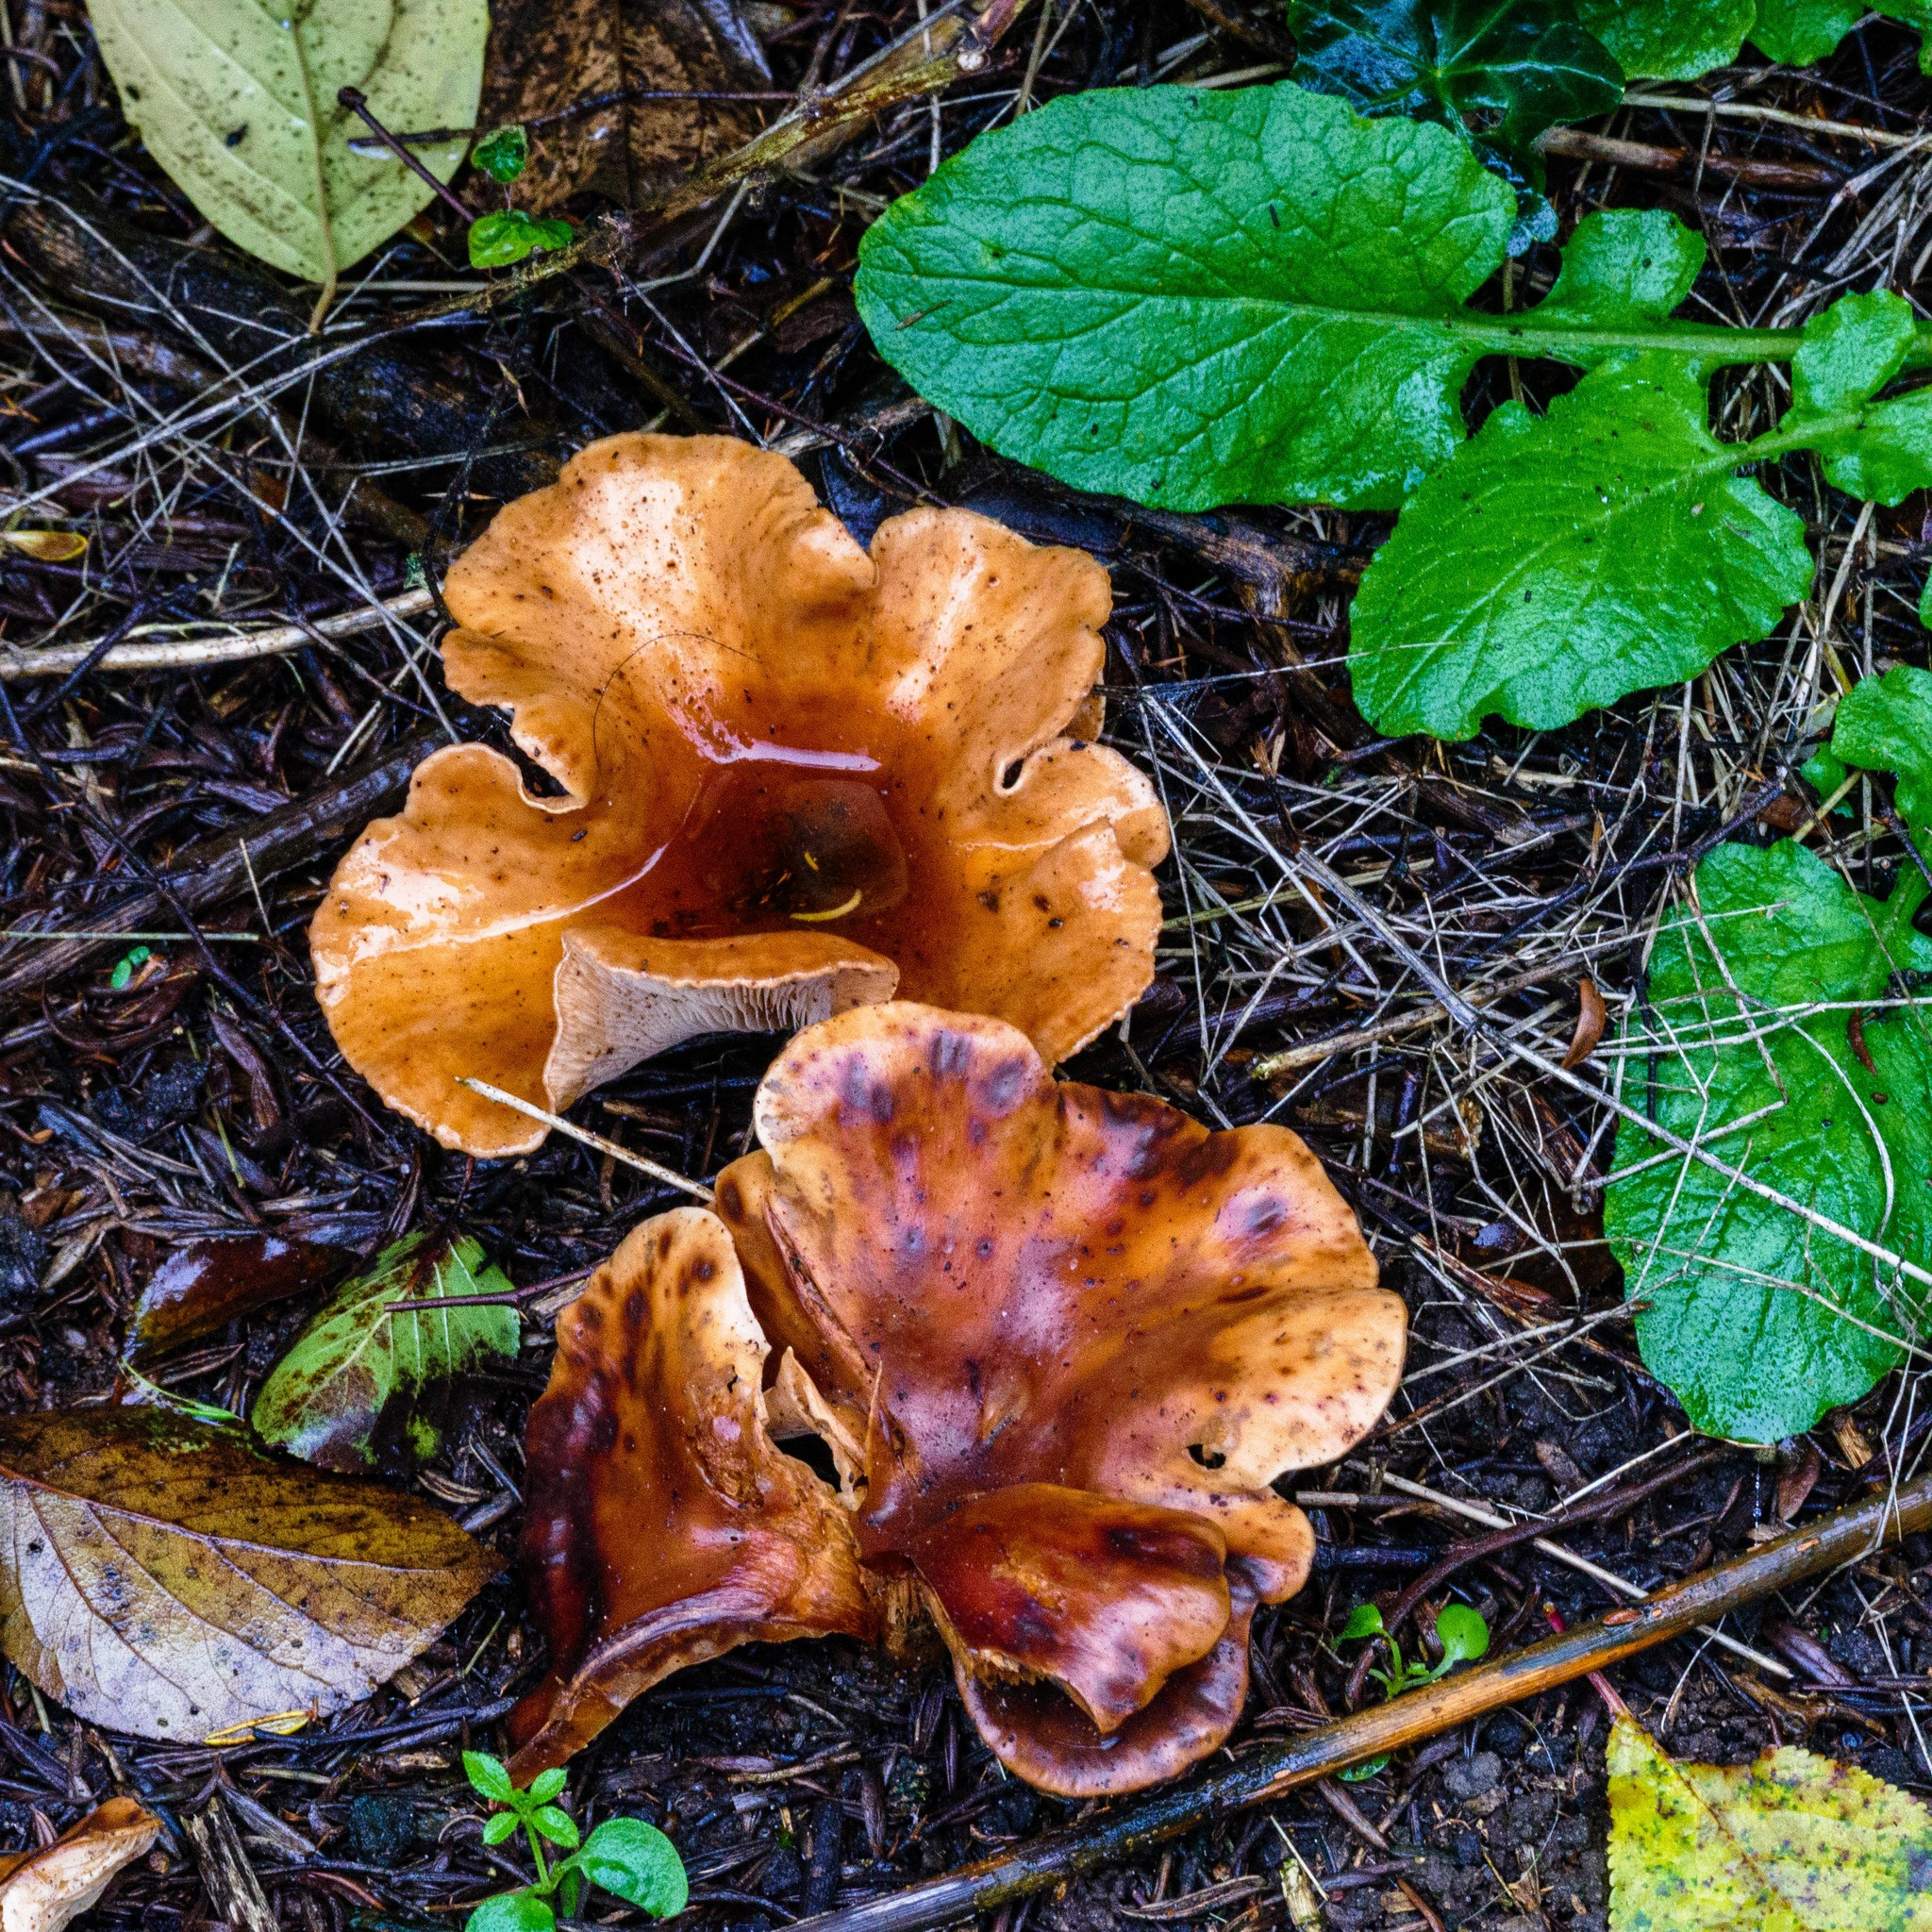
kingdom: Fungi
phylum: Basidiomycota
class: Agaricomycetes
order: Agaricales
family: Tricholomataceae
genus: Paralepista
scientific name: Paralepista flaccida
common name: Tawny funnel cap
